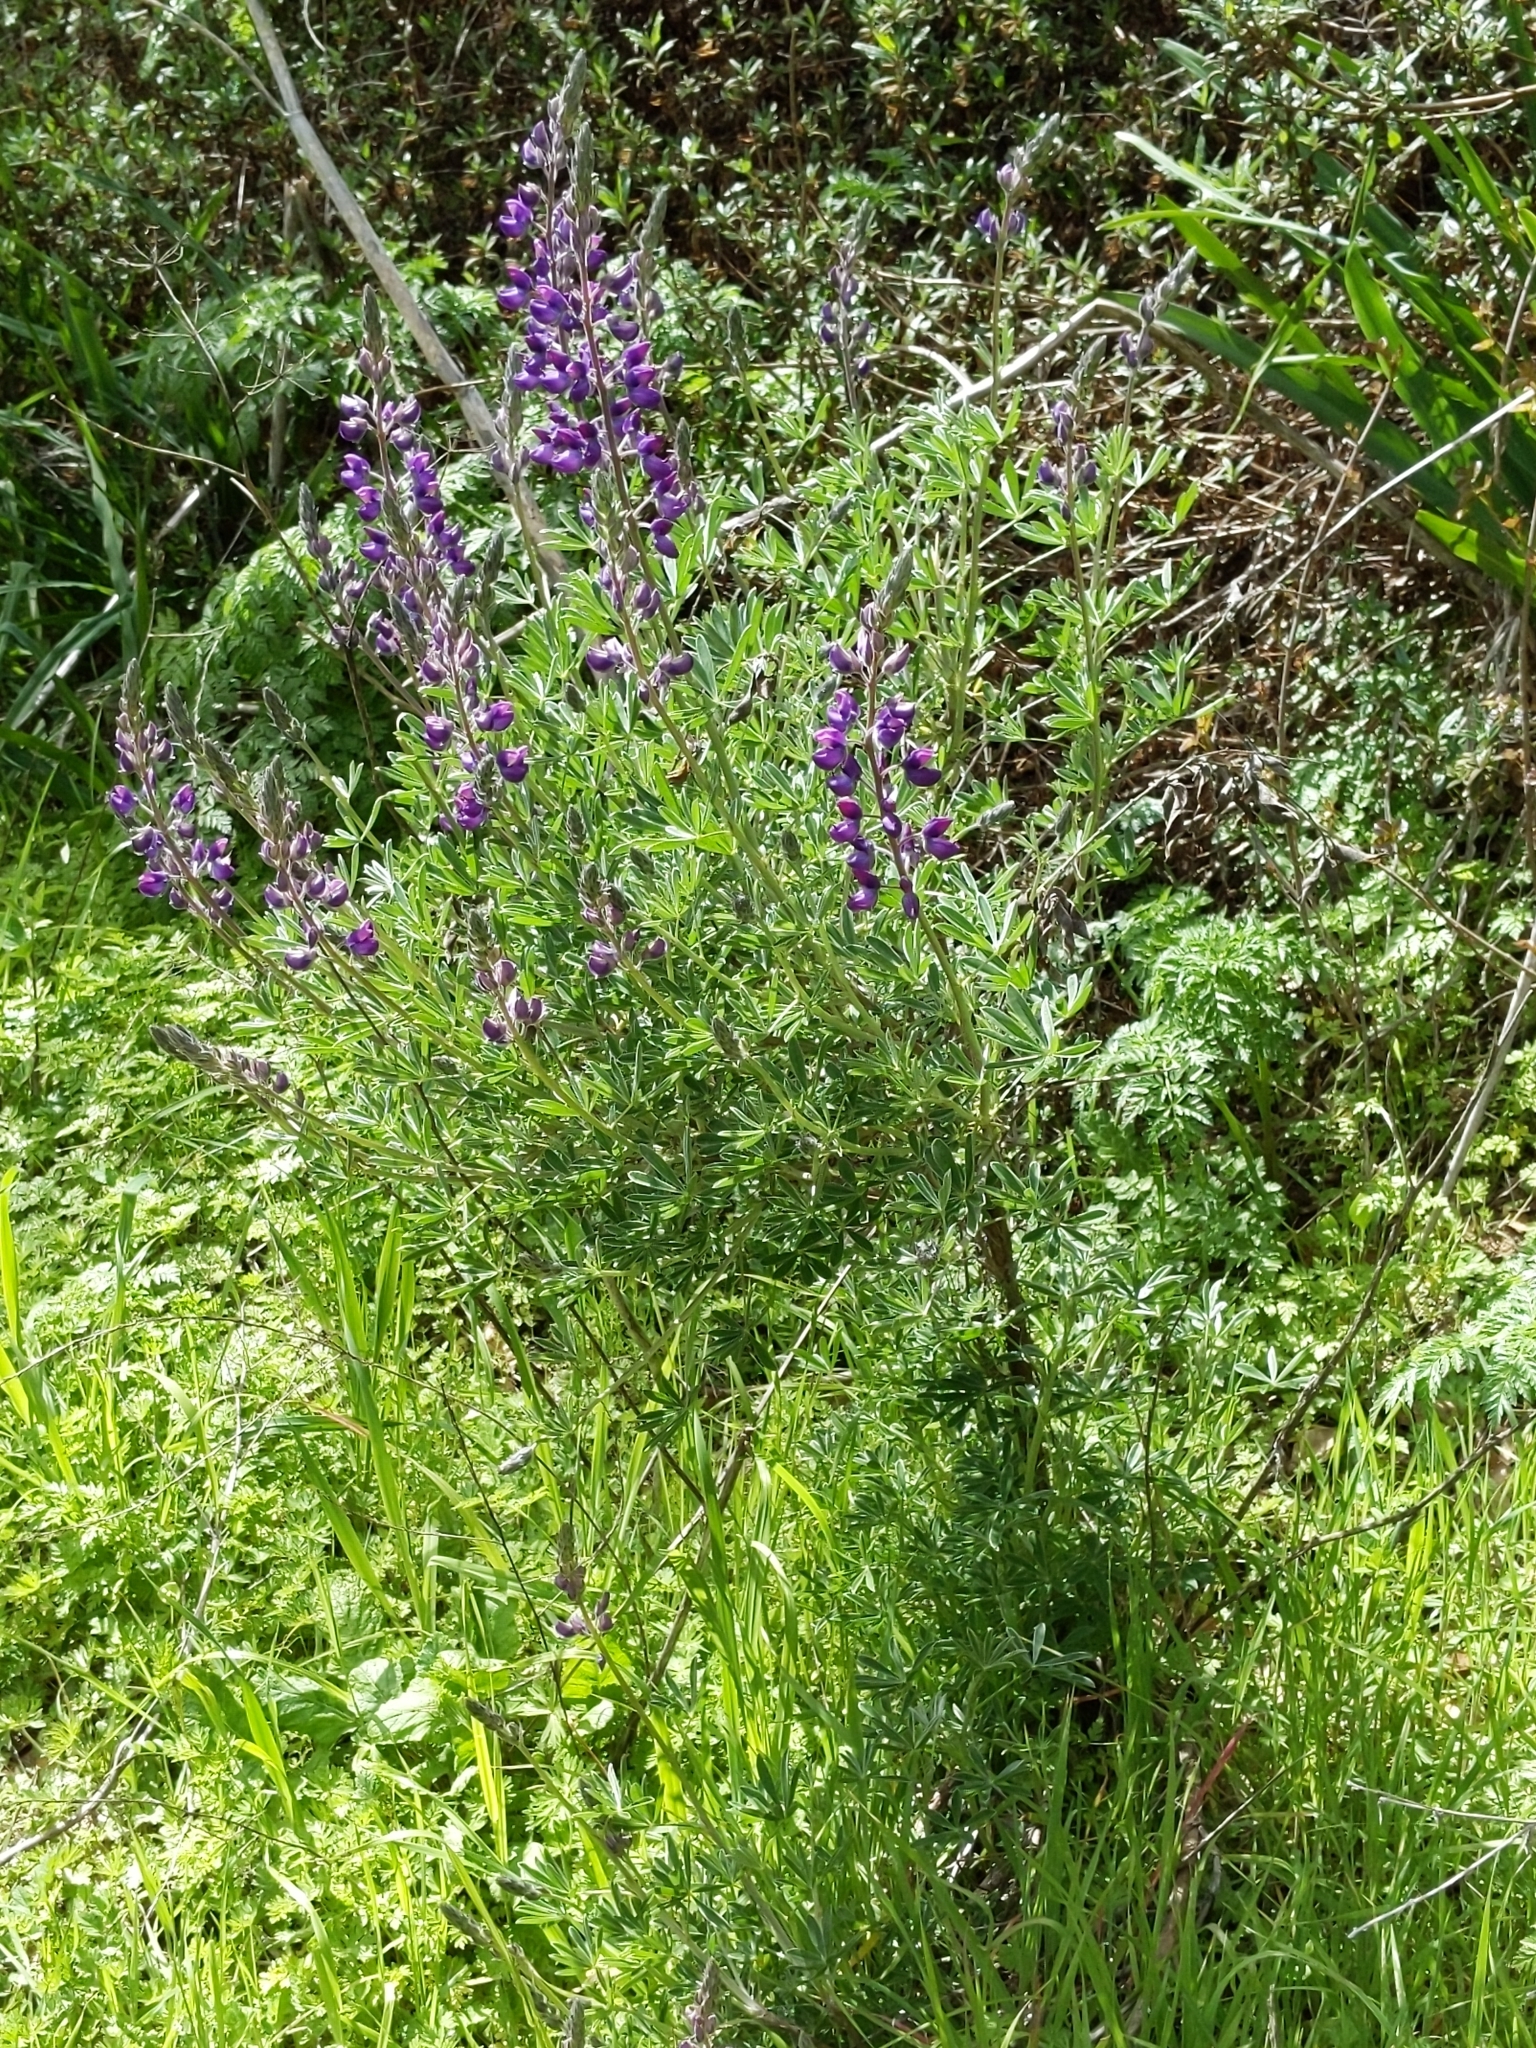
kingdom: Plantae
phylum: Tracheophyta
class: Magnoliopsida
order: Fabales
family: Fabaceae
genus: Lupinus
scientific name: Lupinus albifrons
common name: Foothill lupine
